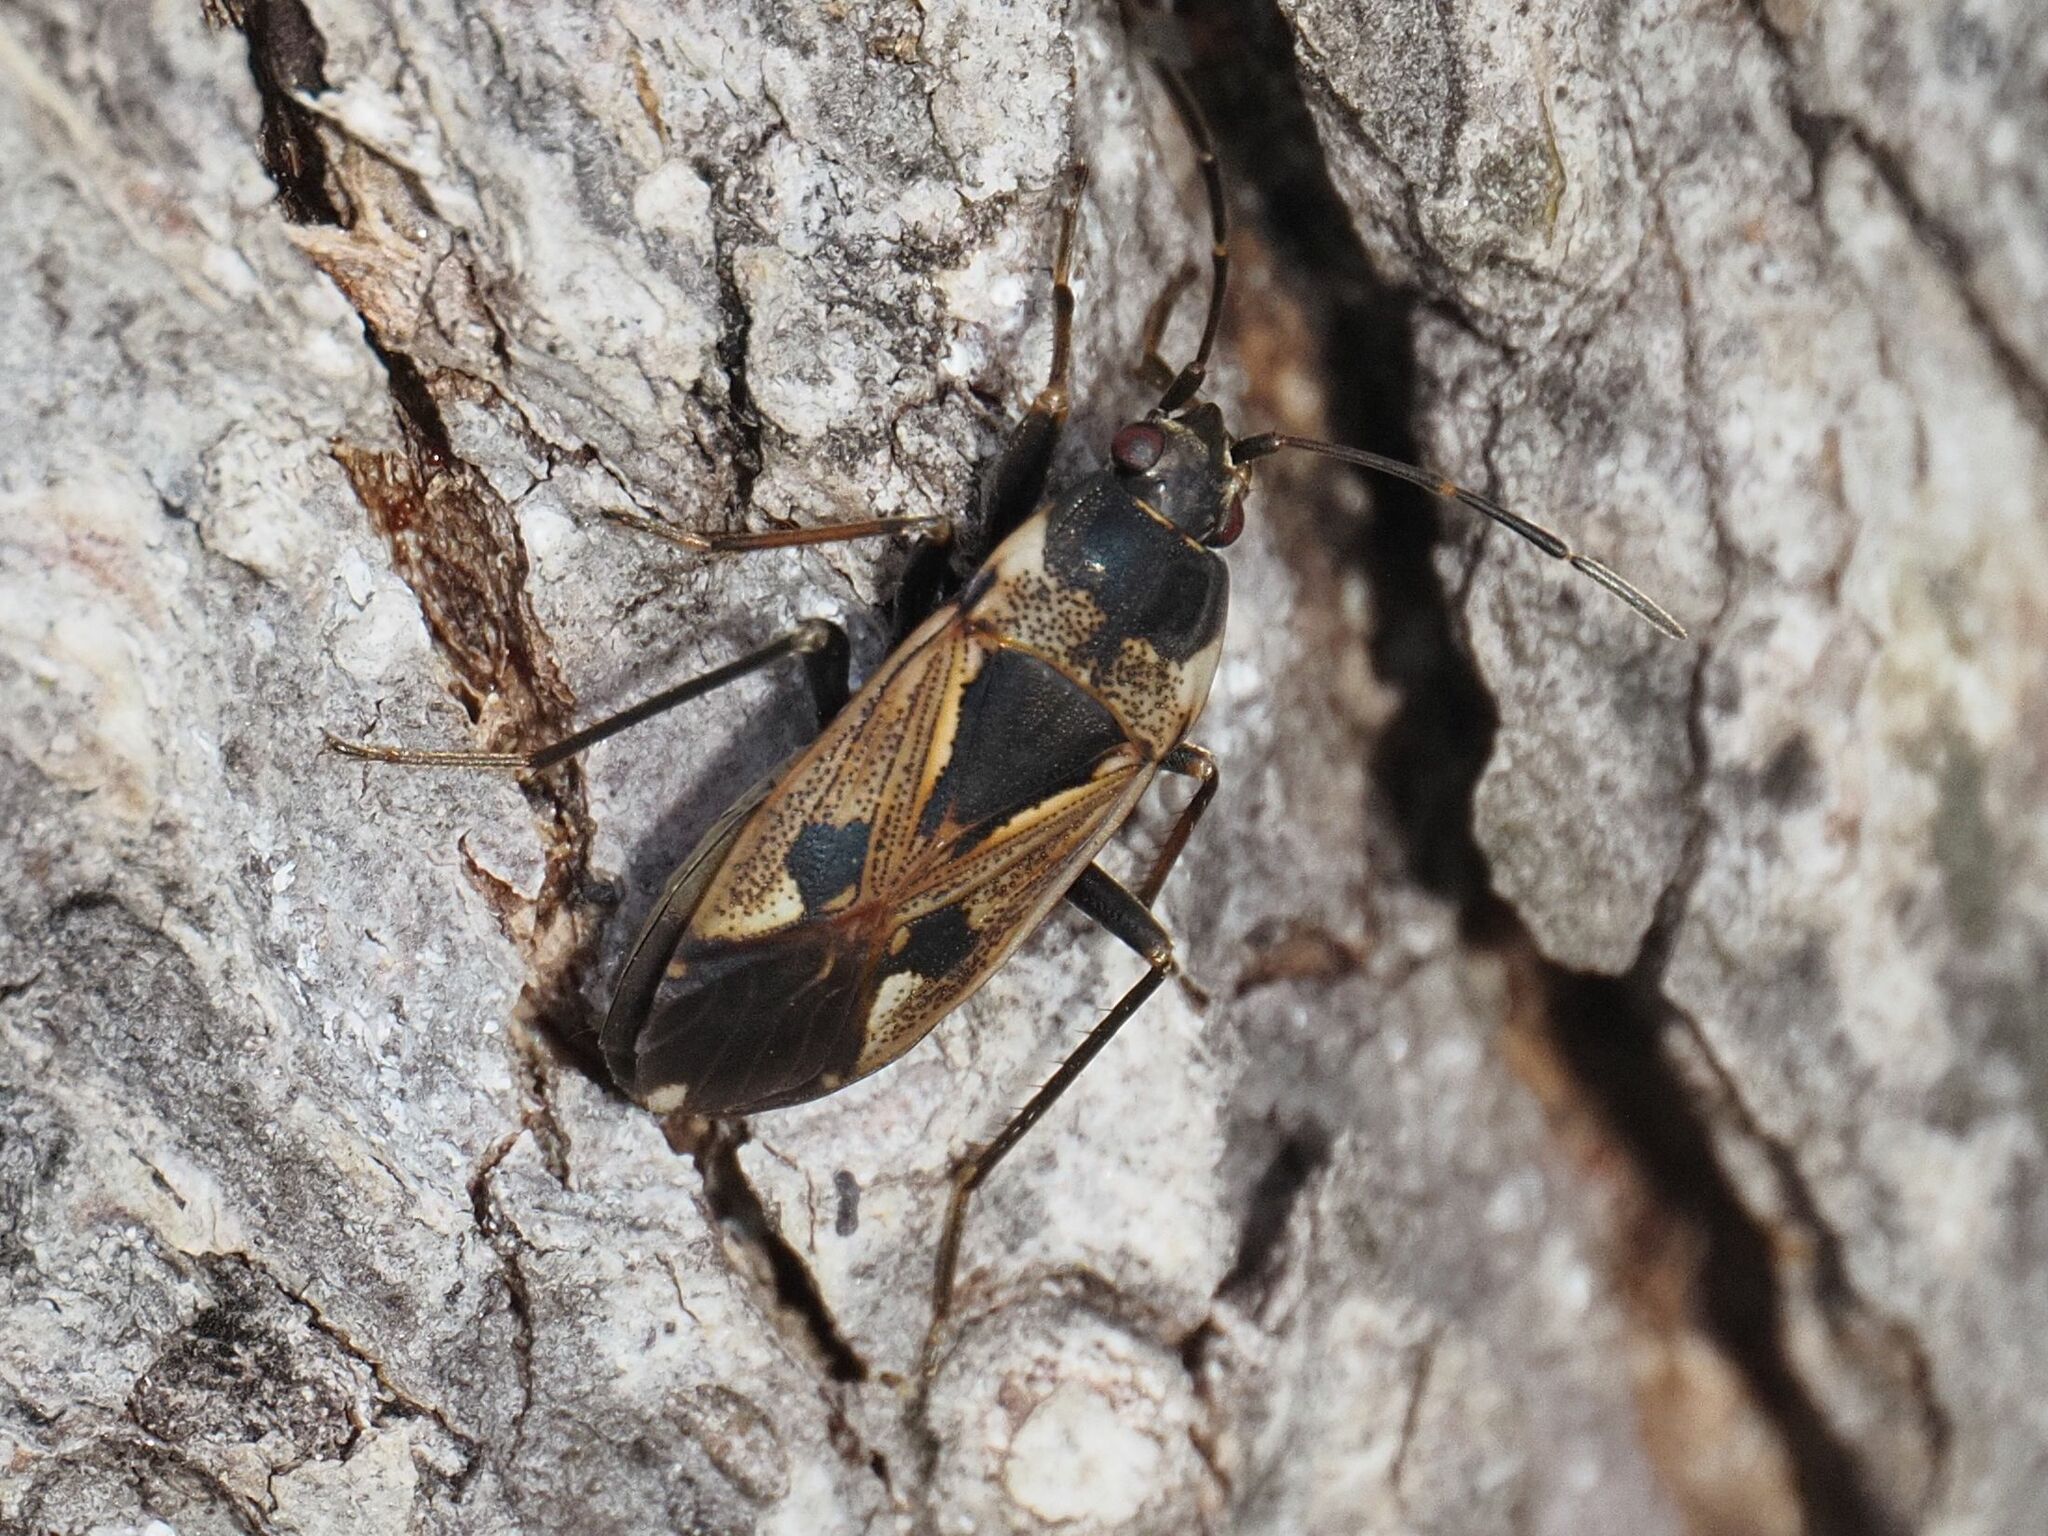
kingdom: Animalia
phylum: Arthropoda
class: Insecta
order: Hemiptera
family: Rhyparochromidae
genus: Rhyparochromus
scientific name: Rhyparochromus vulgaris
